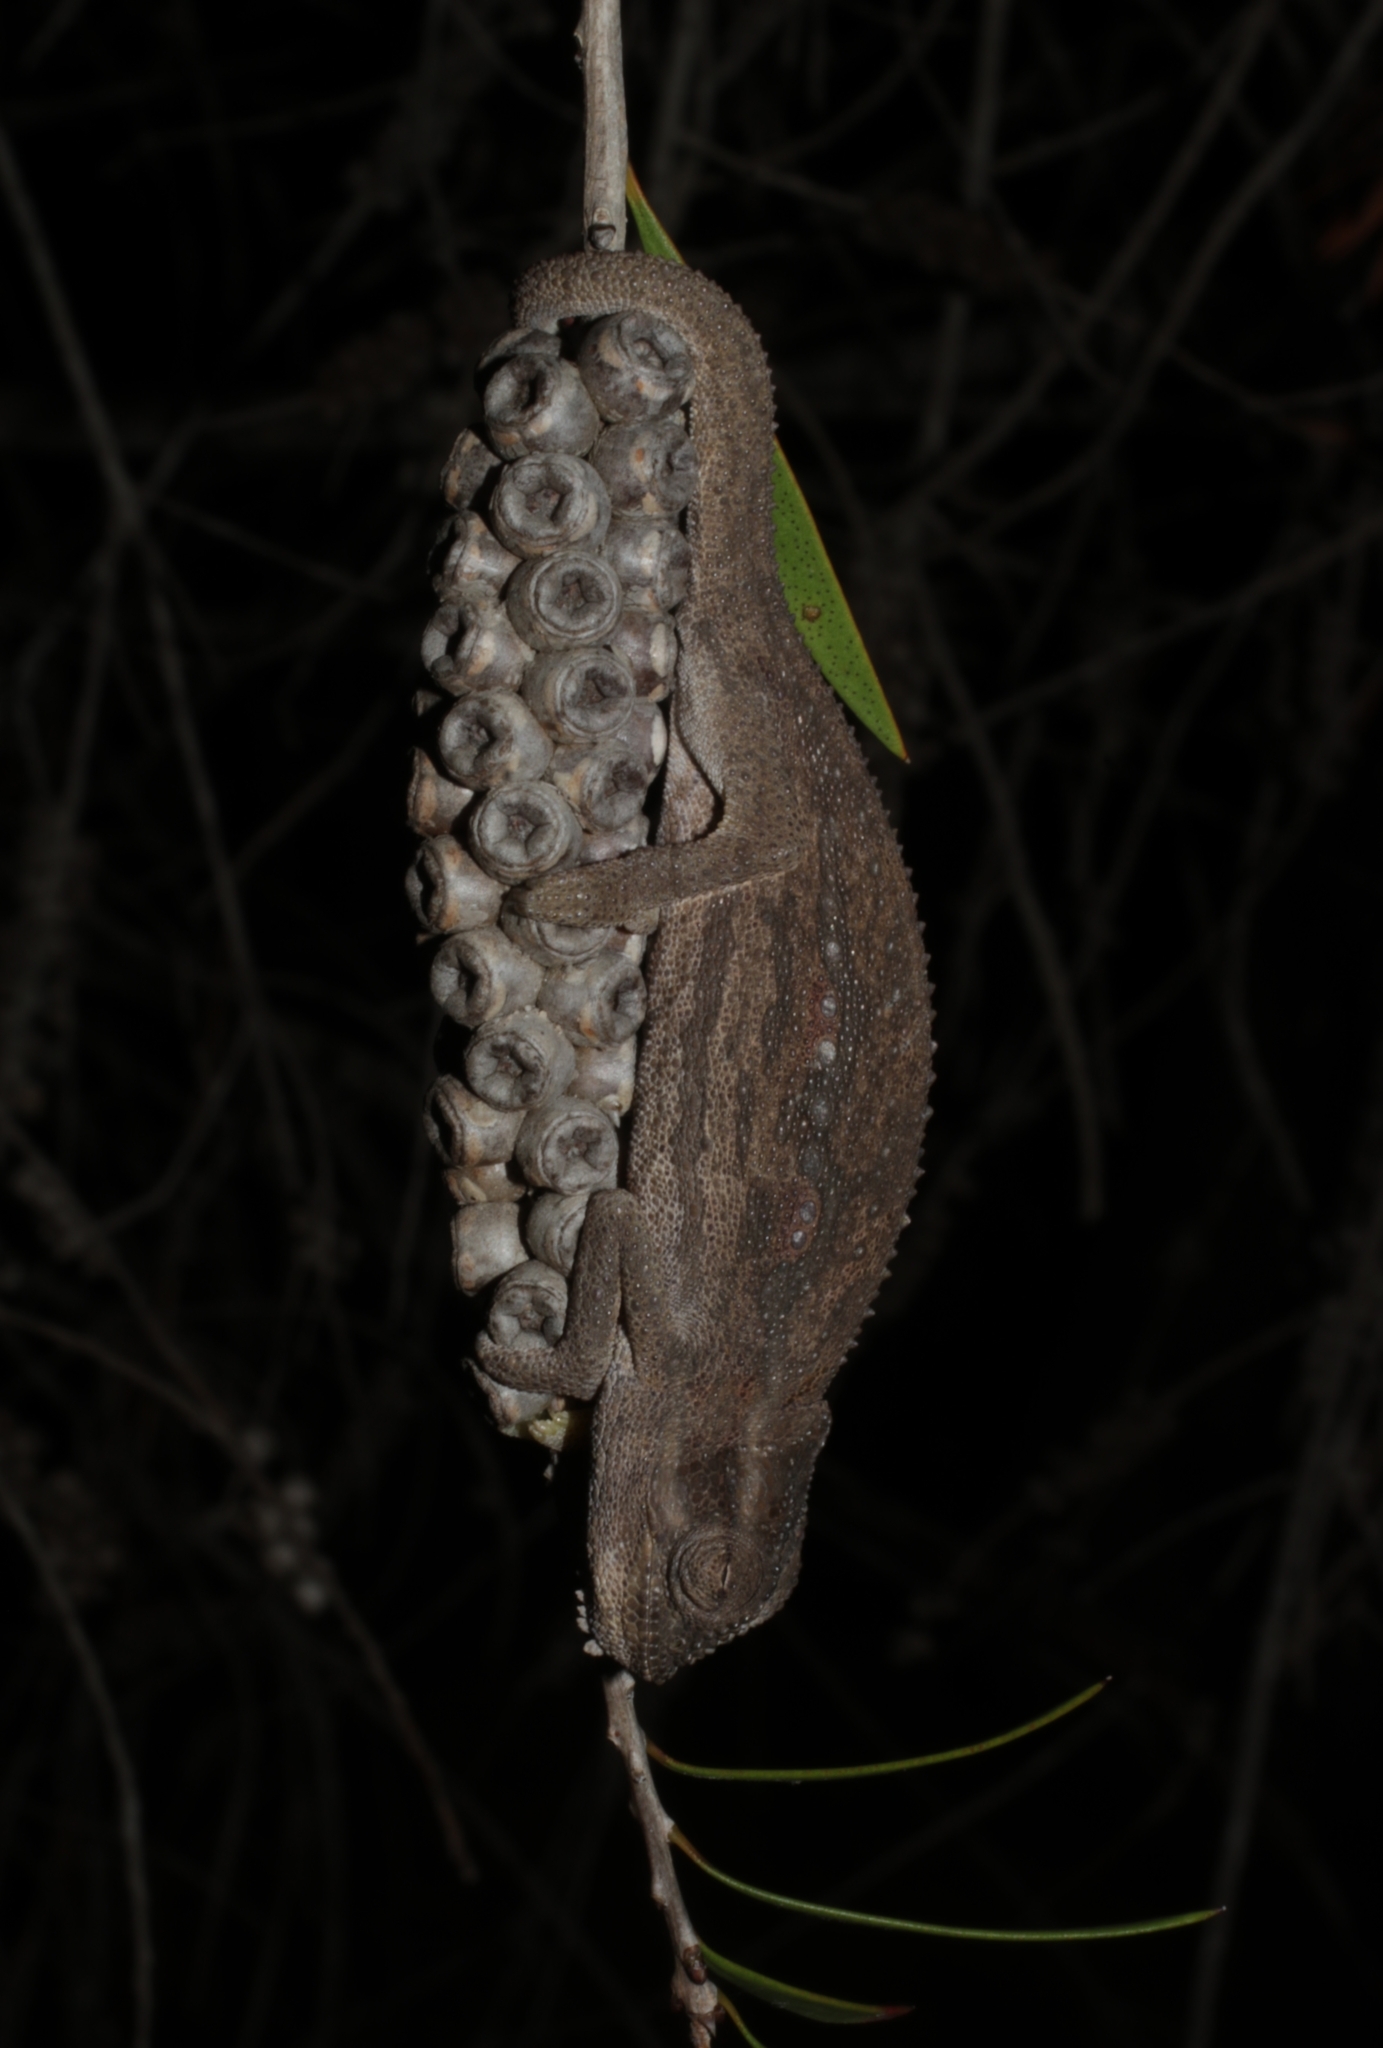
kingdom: Animalia
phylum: Chordata
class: Squamata
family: Chamaeleonidae
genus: Bradypodion
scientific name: Bradypodion pumilum
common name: Cape dwarf chameleon
